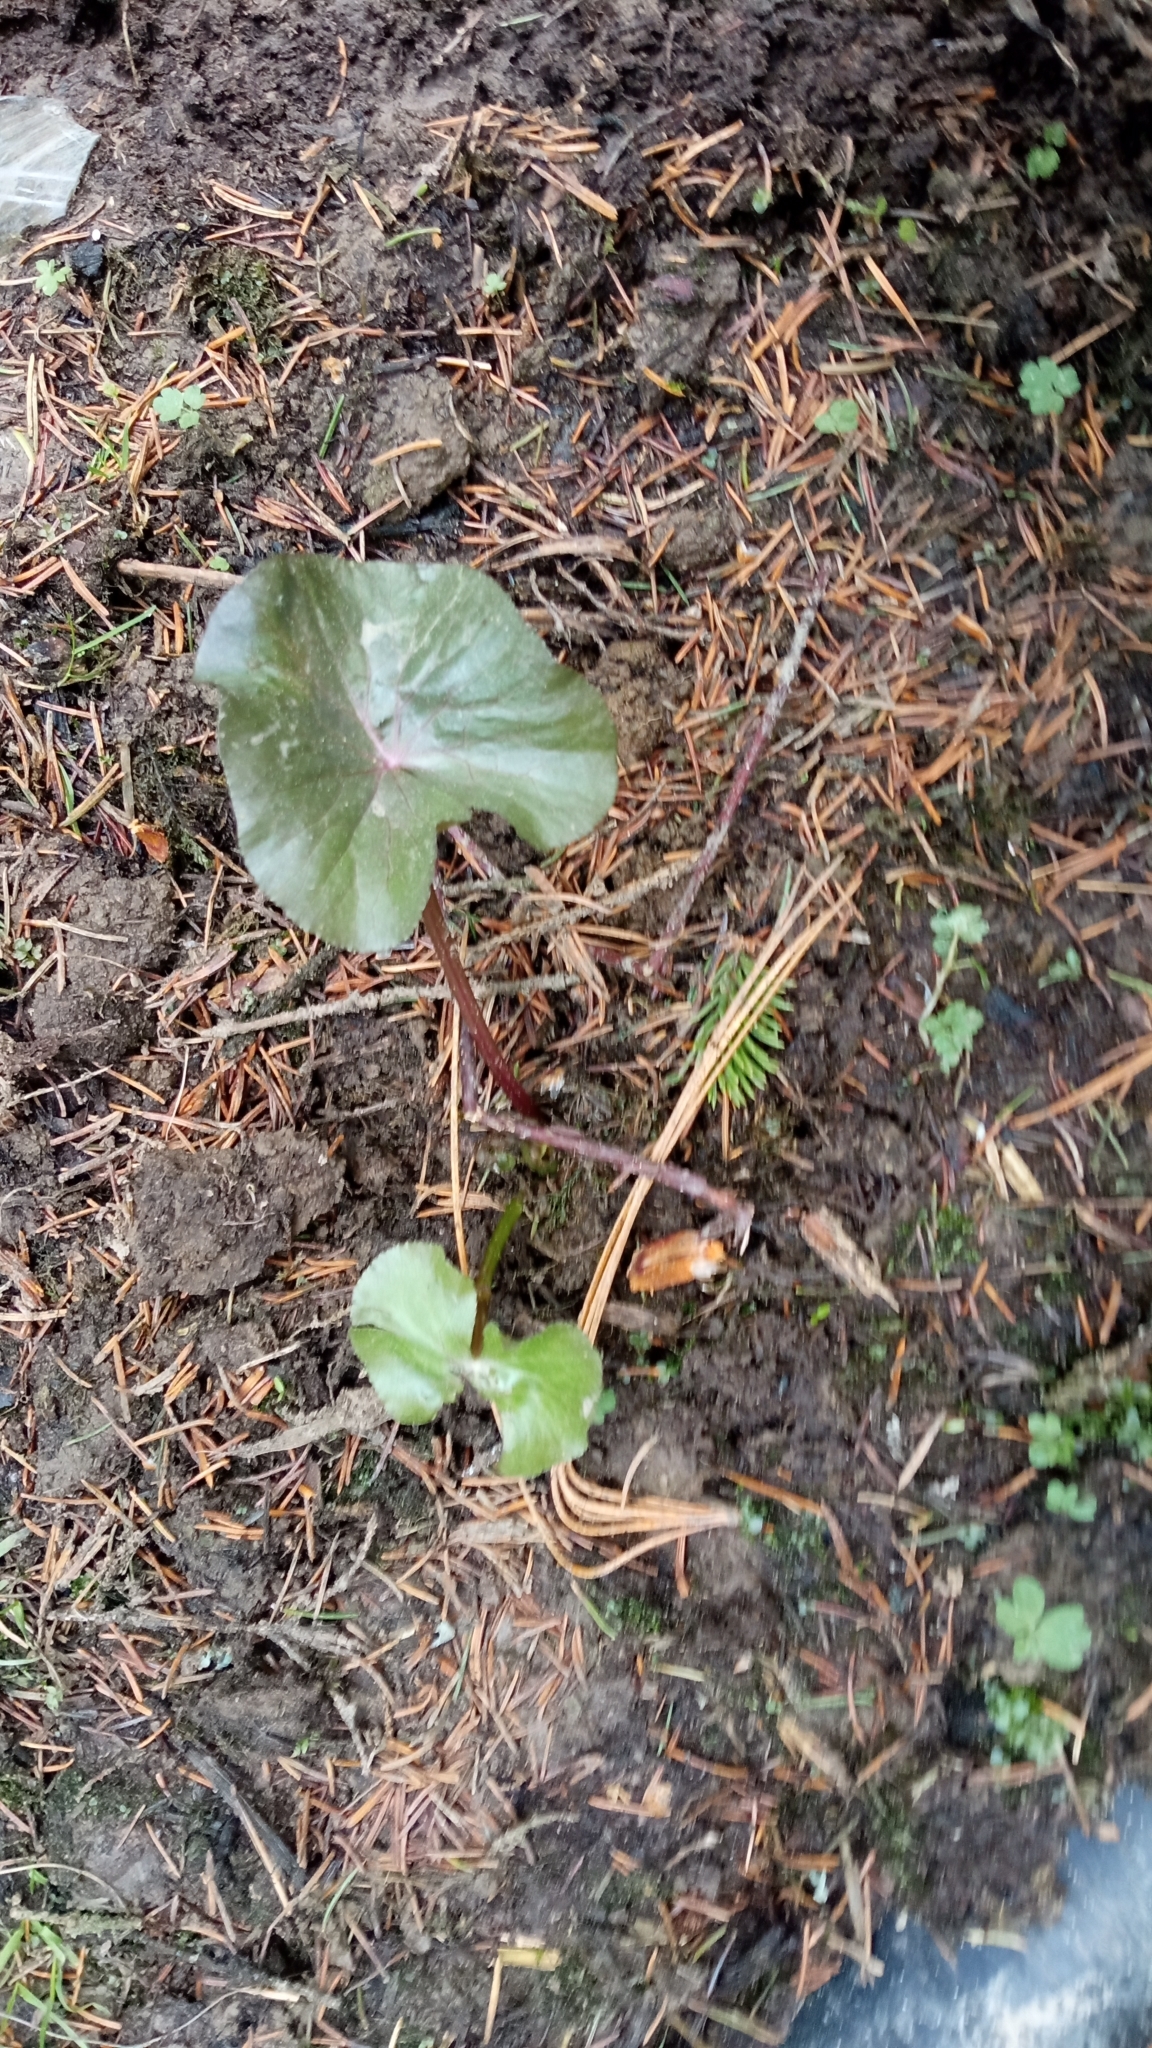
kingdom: Plantae
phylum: Tracheophyta
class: Magnoliopsida
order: Ranunculales
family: Ranunculaceae
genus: Caltha
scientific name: Caltha palustris
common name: Marsh marigold
